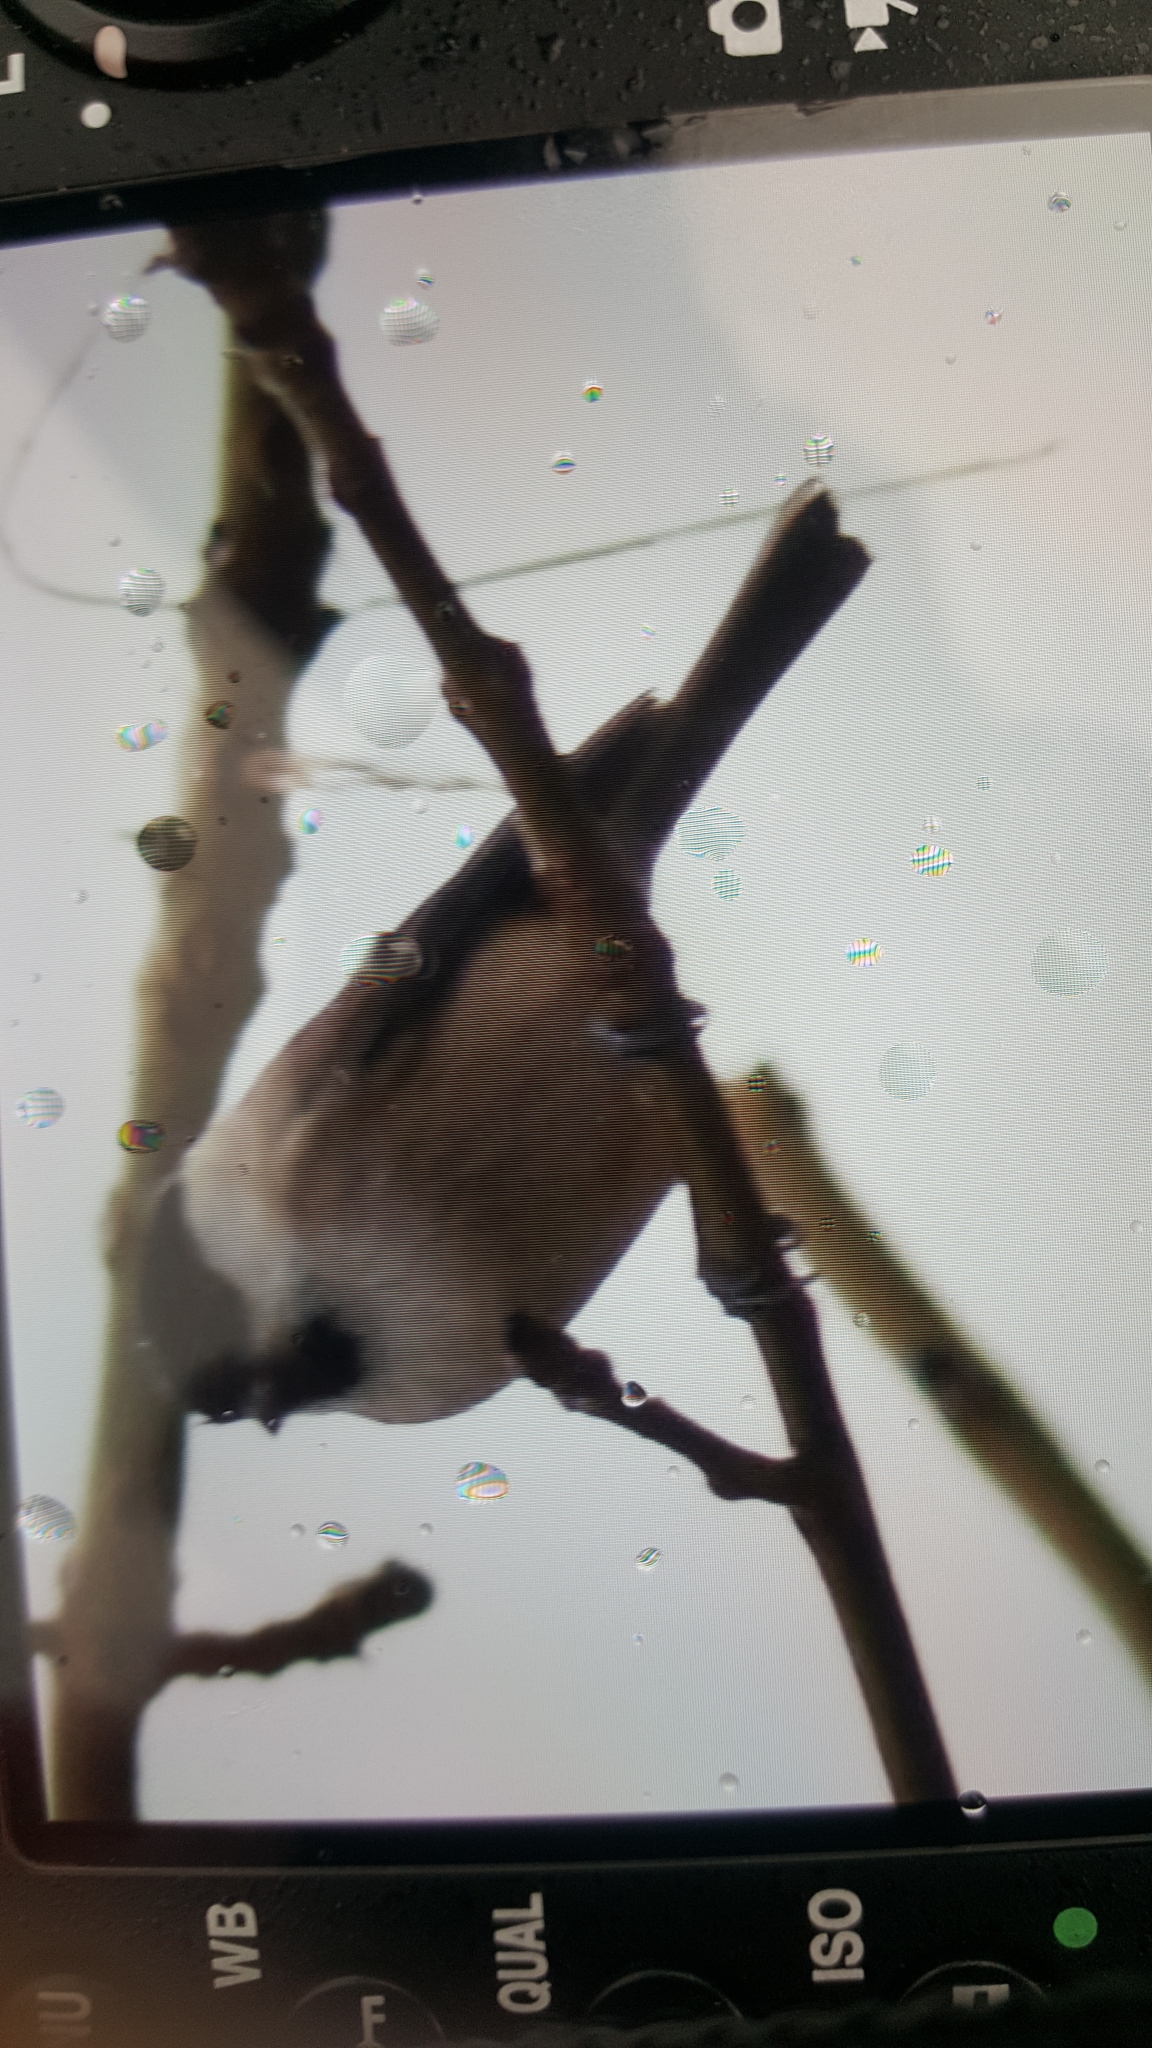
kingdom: Animalia
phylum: Chordata
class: Aves
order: Passeriformes
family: Paridae
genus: Poecile
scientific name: Poecile palustris
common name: Marsh tit
